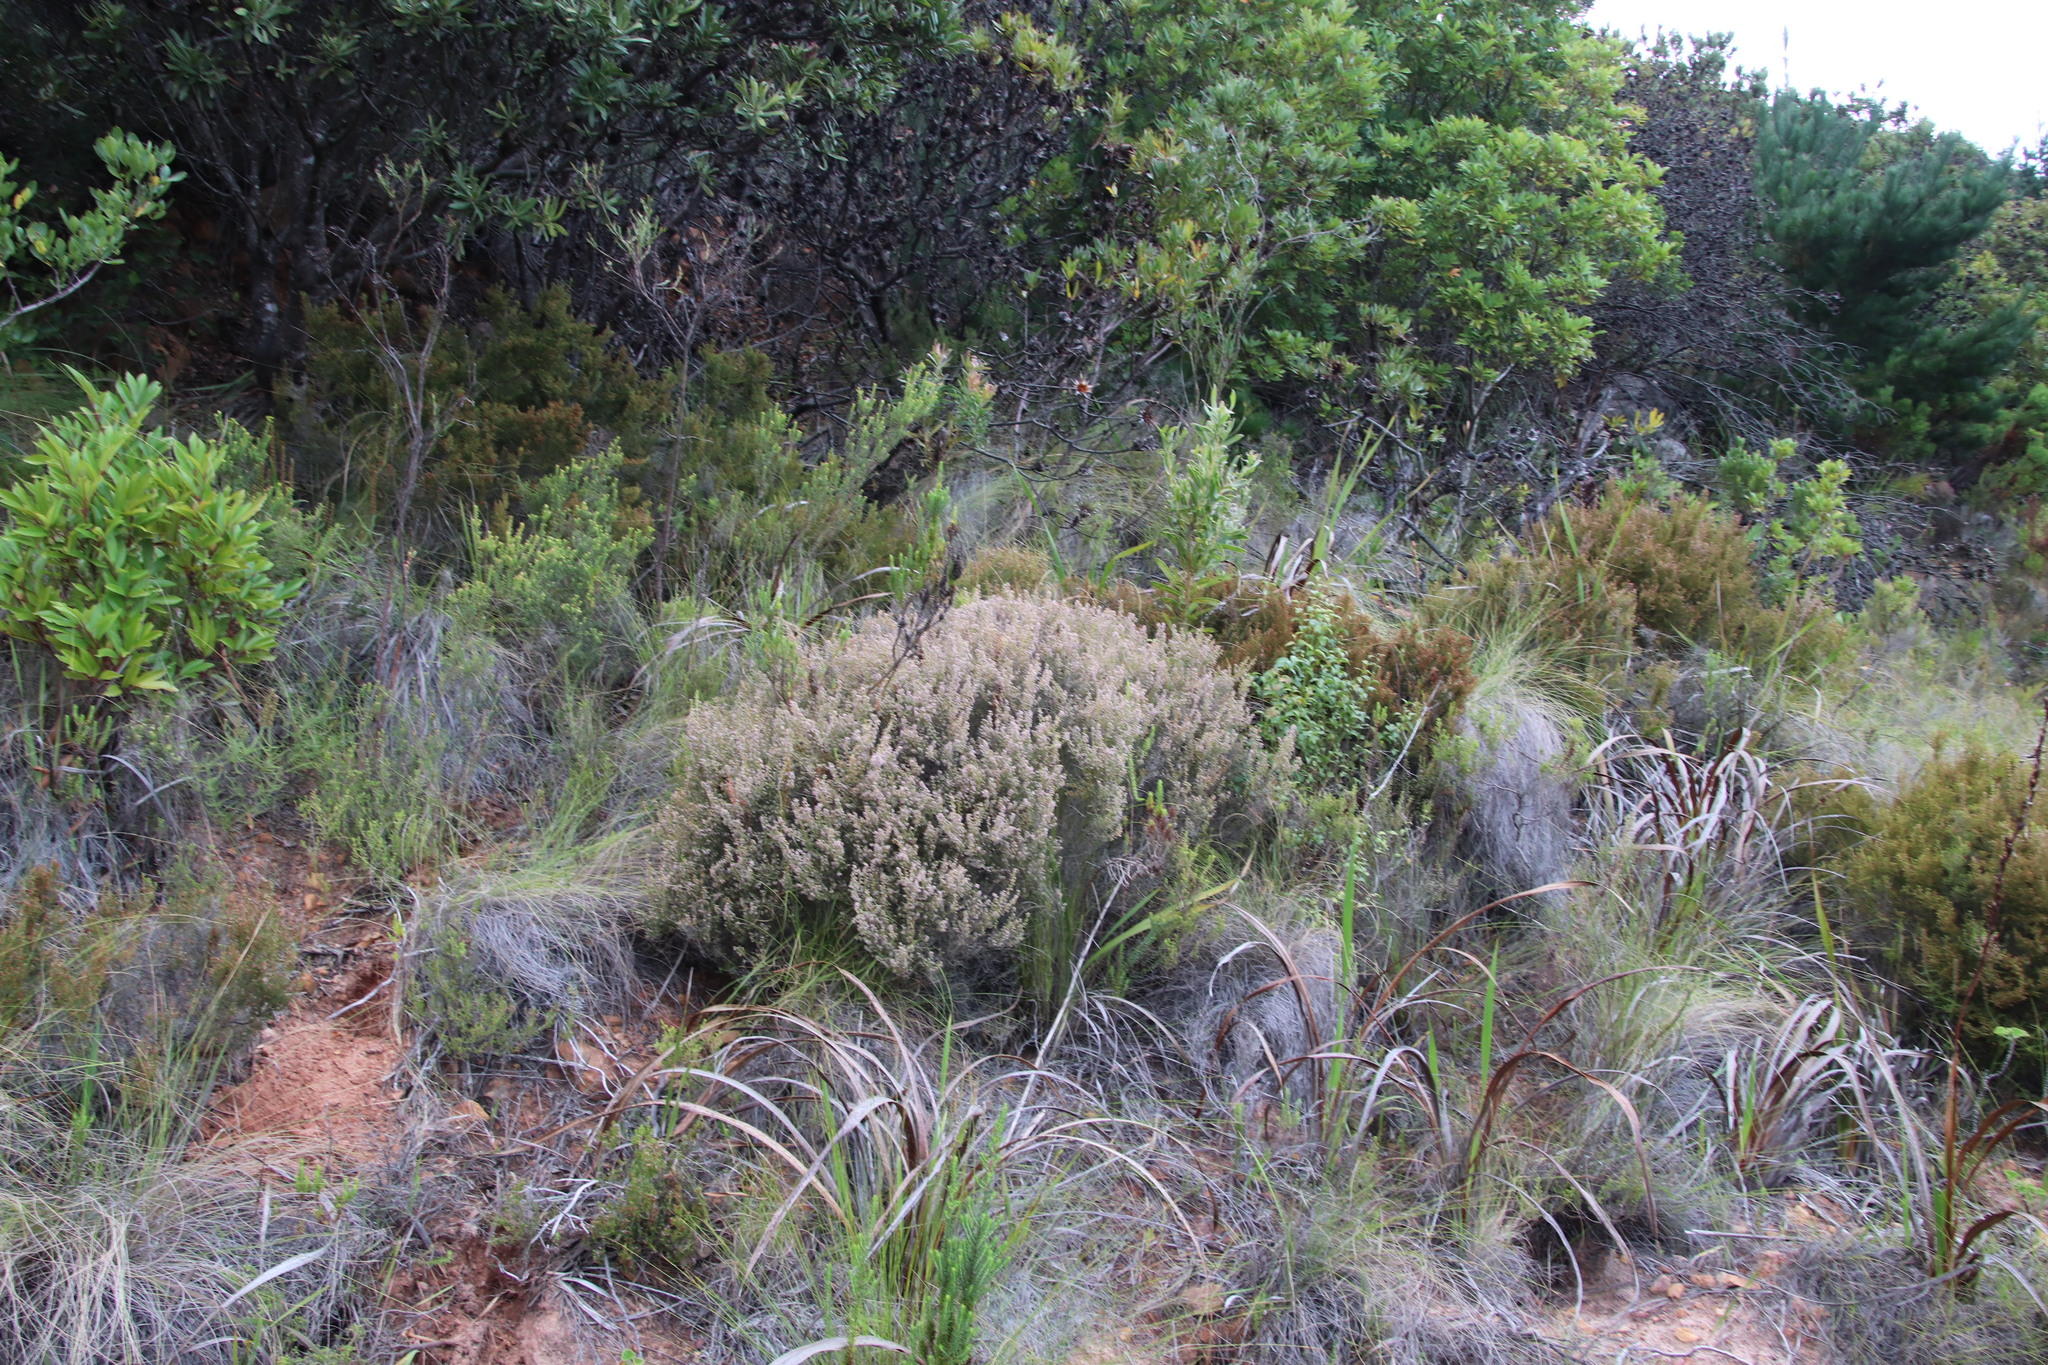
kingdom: Plantae
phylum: Tracheophyta
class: Magnoliopsida
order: Ericales
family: Ericaceae
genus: Erica
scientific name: Erica hispidula
